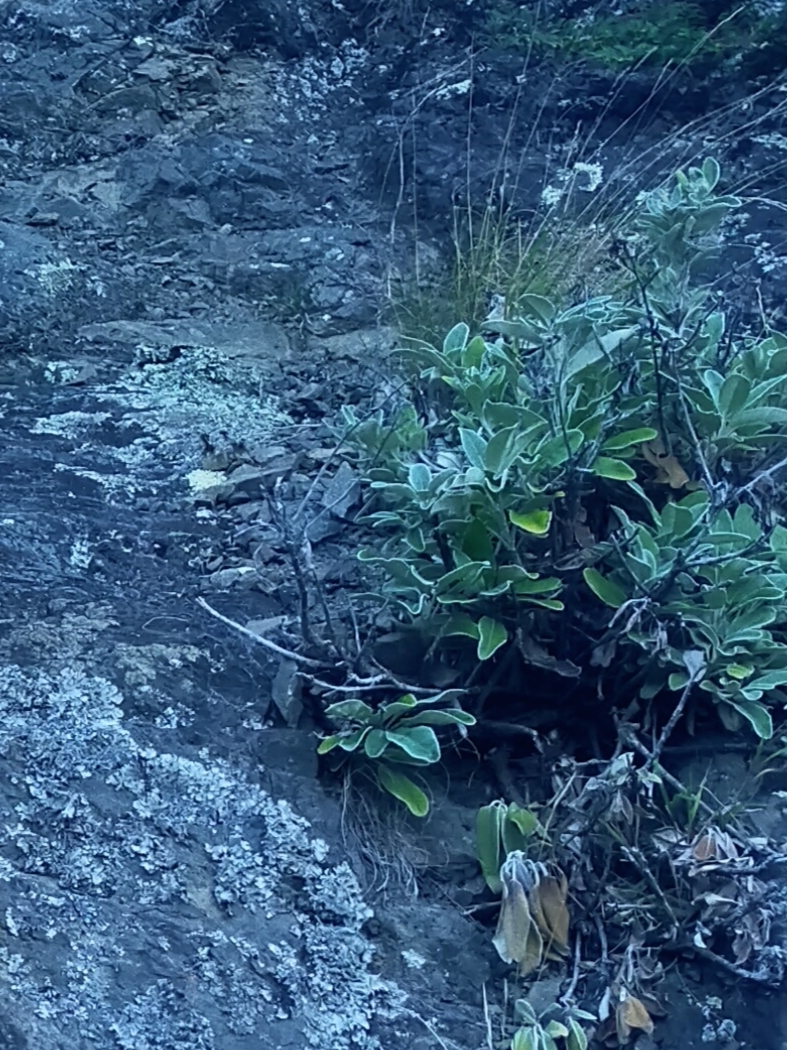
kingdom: Plantae
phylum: Tracheophyta
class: Magnoliopsida
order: Asterales
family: Asteraceae
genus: Brachyglottis
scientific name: Brachyglottis greyi
